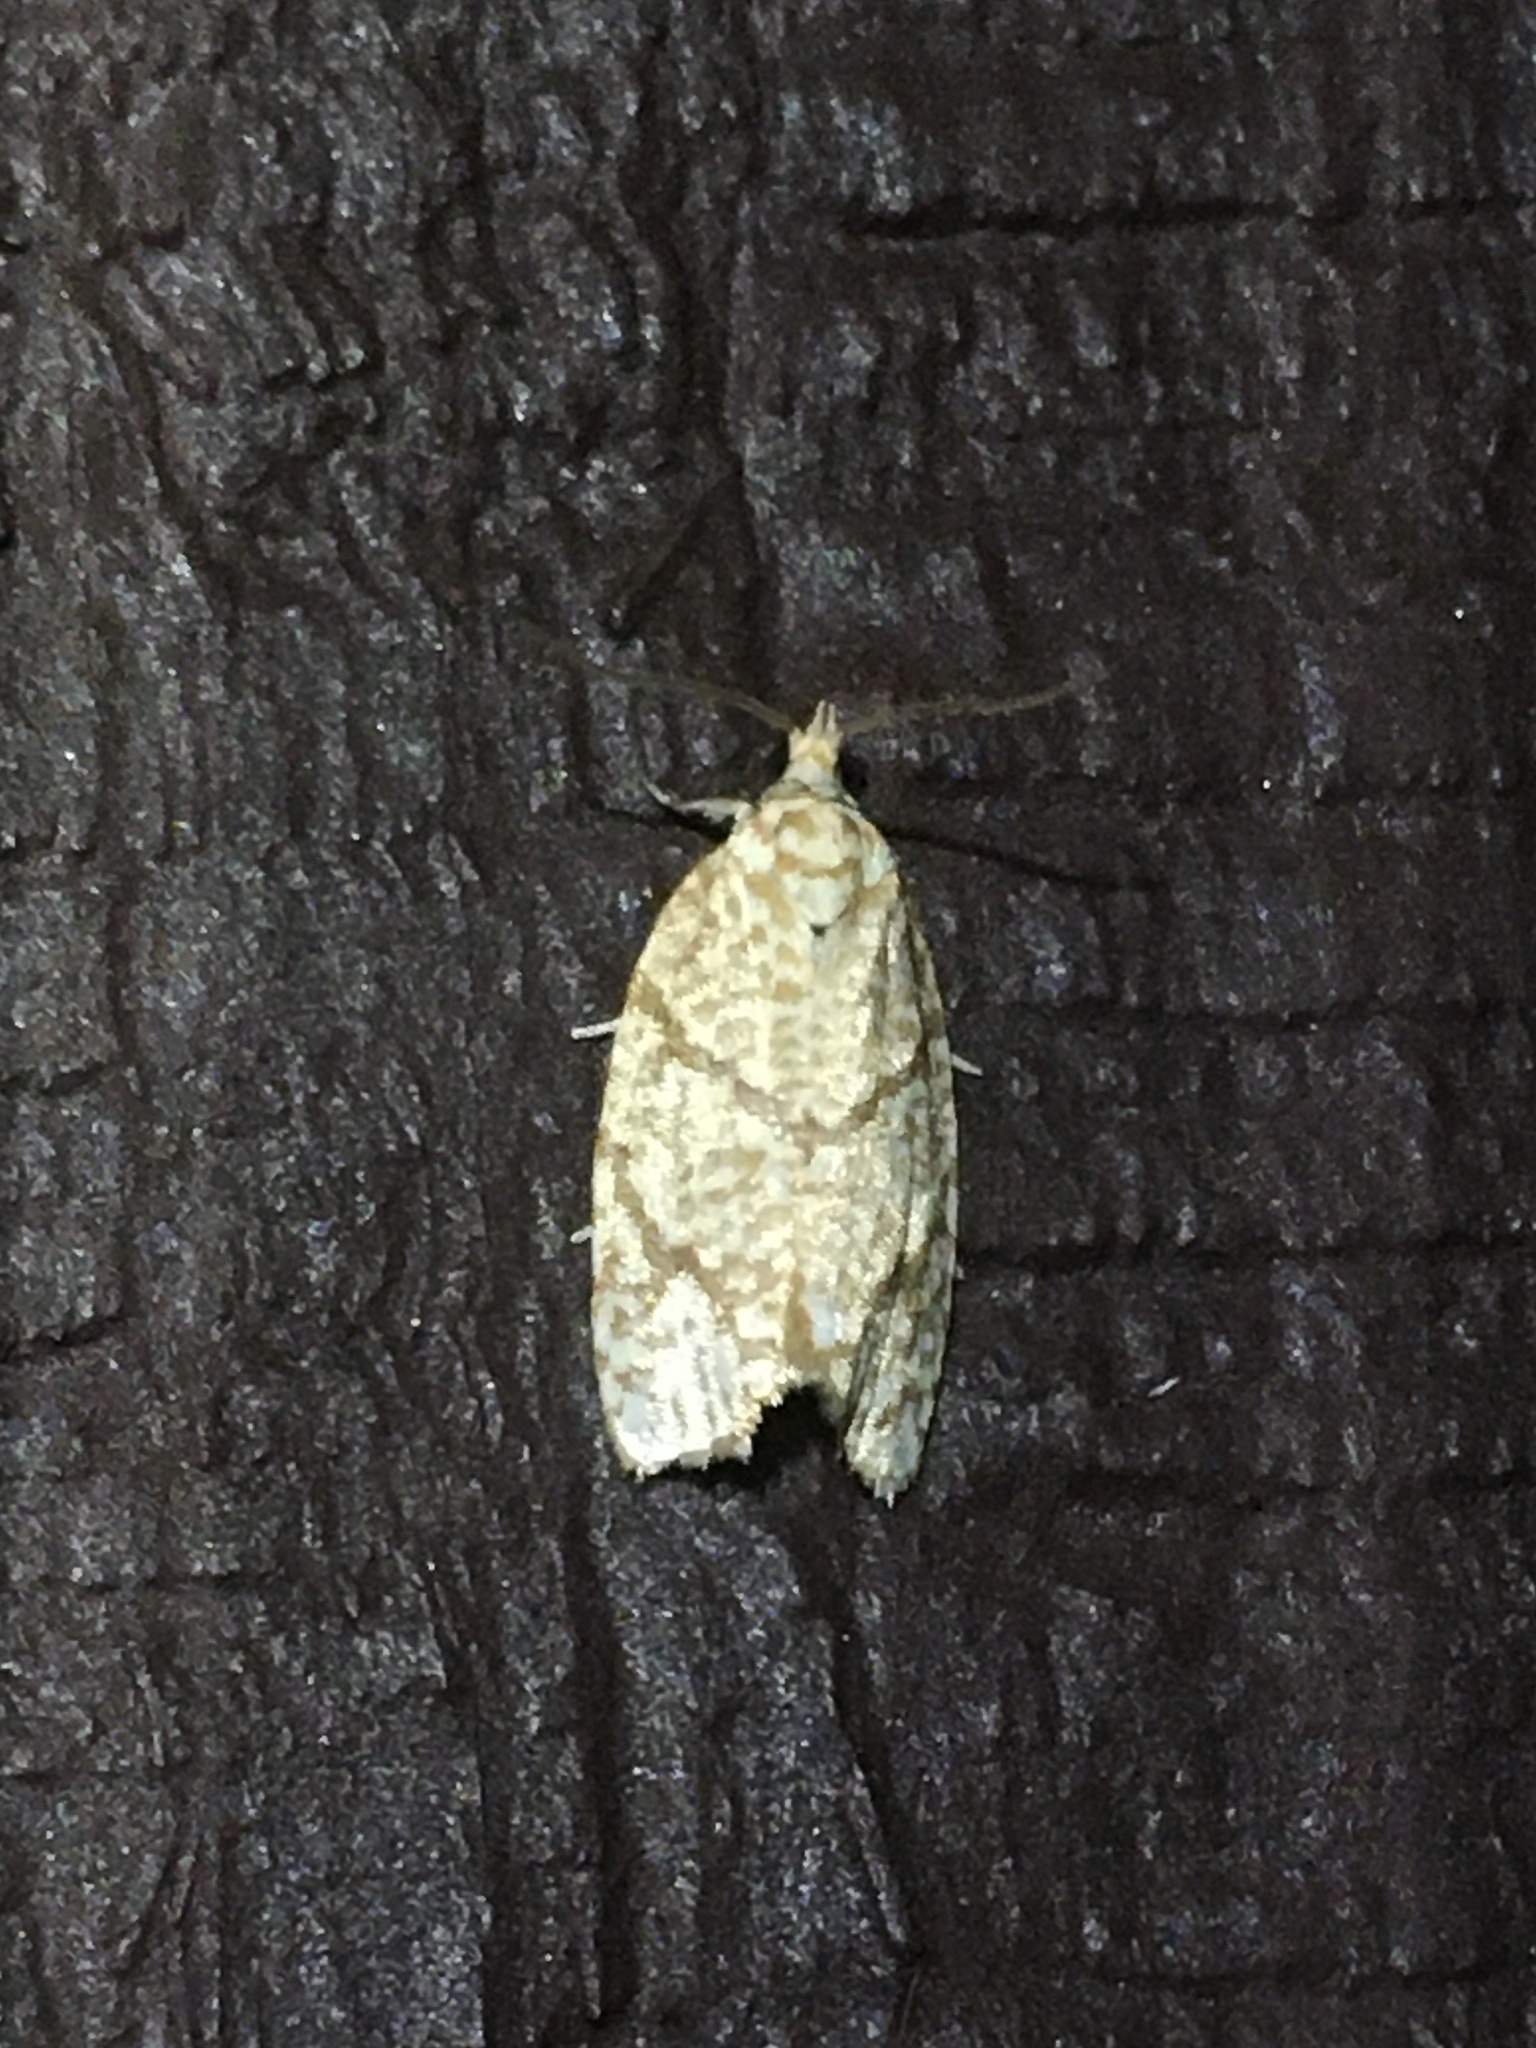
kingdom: Animalia
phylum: Arthropoda
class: Insecta
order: Lepidoptera
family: Tortricidae
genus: Argyrotaenia
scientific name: Argyrotaenia quercifoliana
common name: Yellow-winged oak leafroller moth
